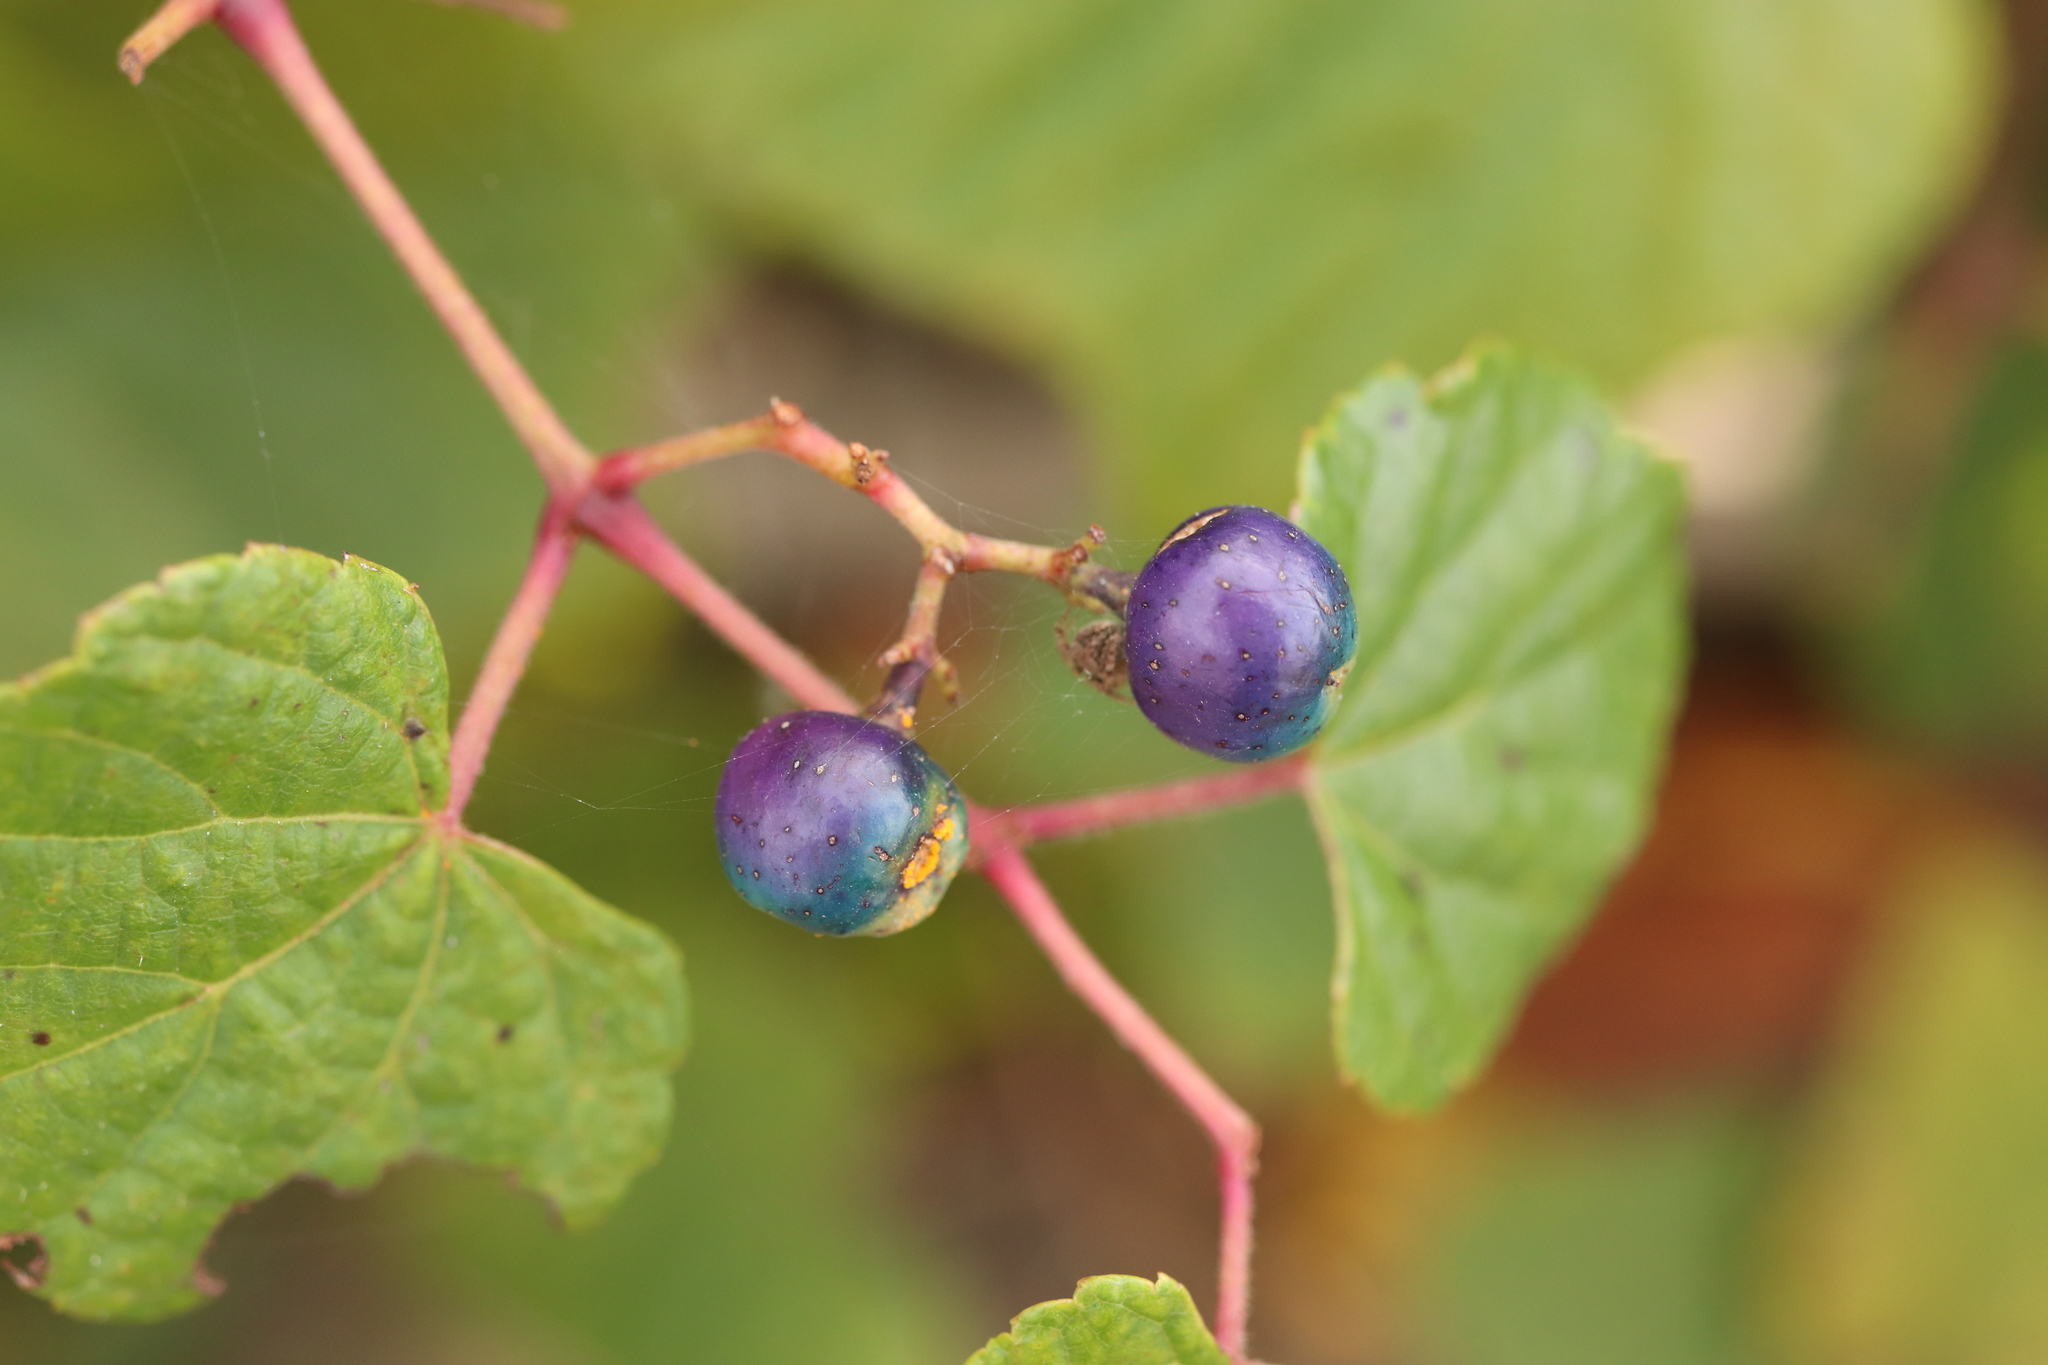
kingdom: Plantae
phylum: Tracheophyta
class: Magnoliopsida
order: Vitales
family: Vitaceae
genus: Ampelopsis
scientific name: Ampelopsis glandulosa
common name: Amur peppervine
